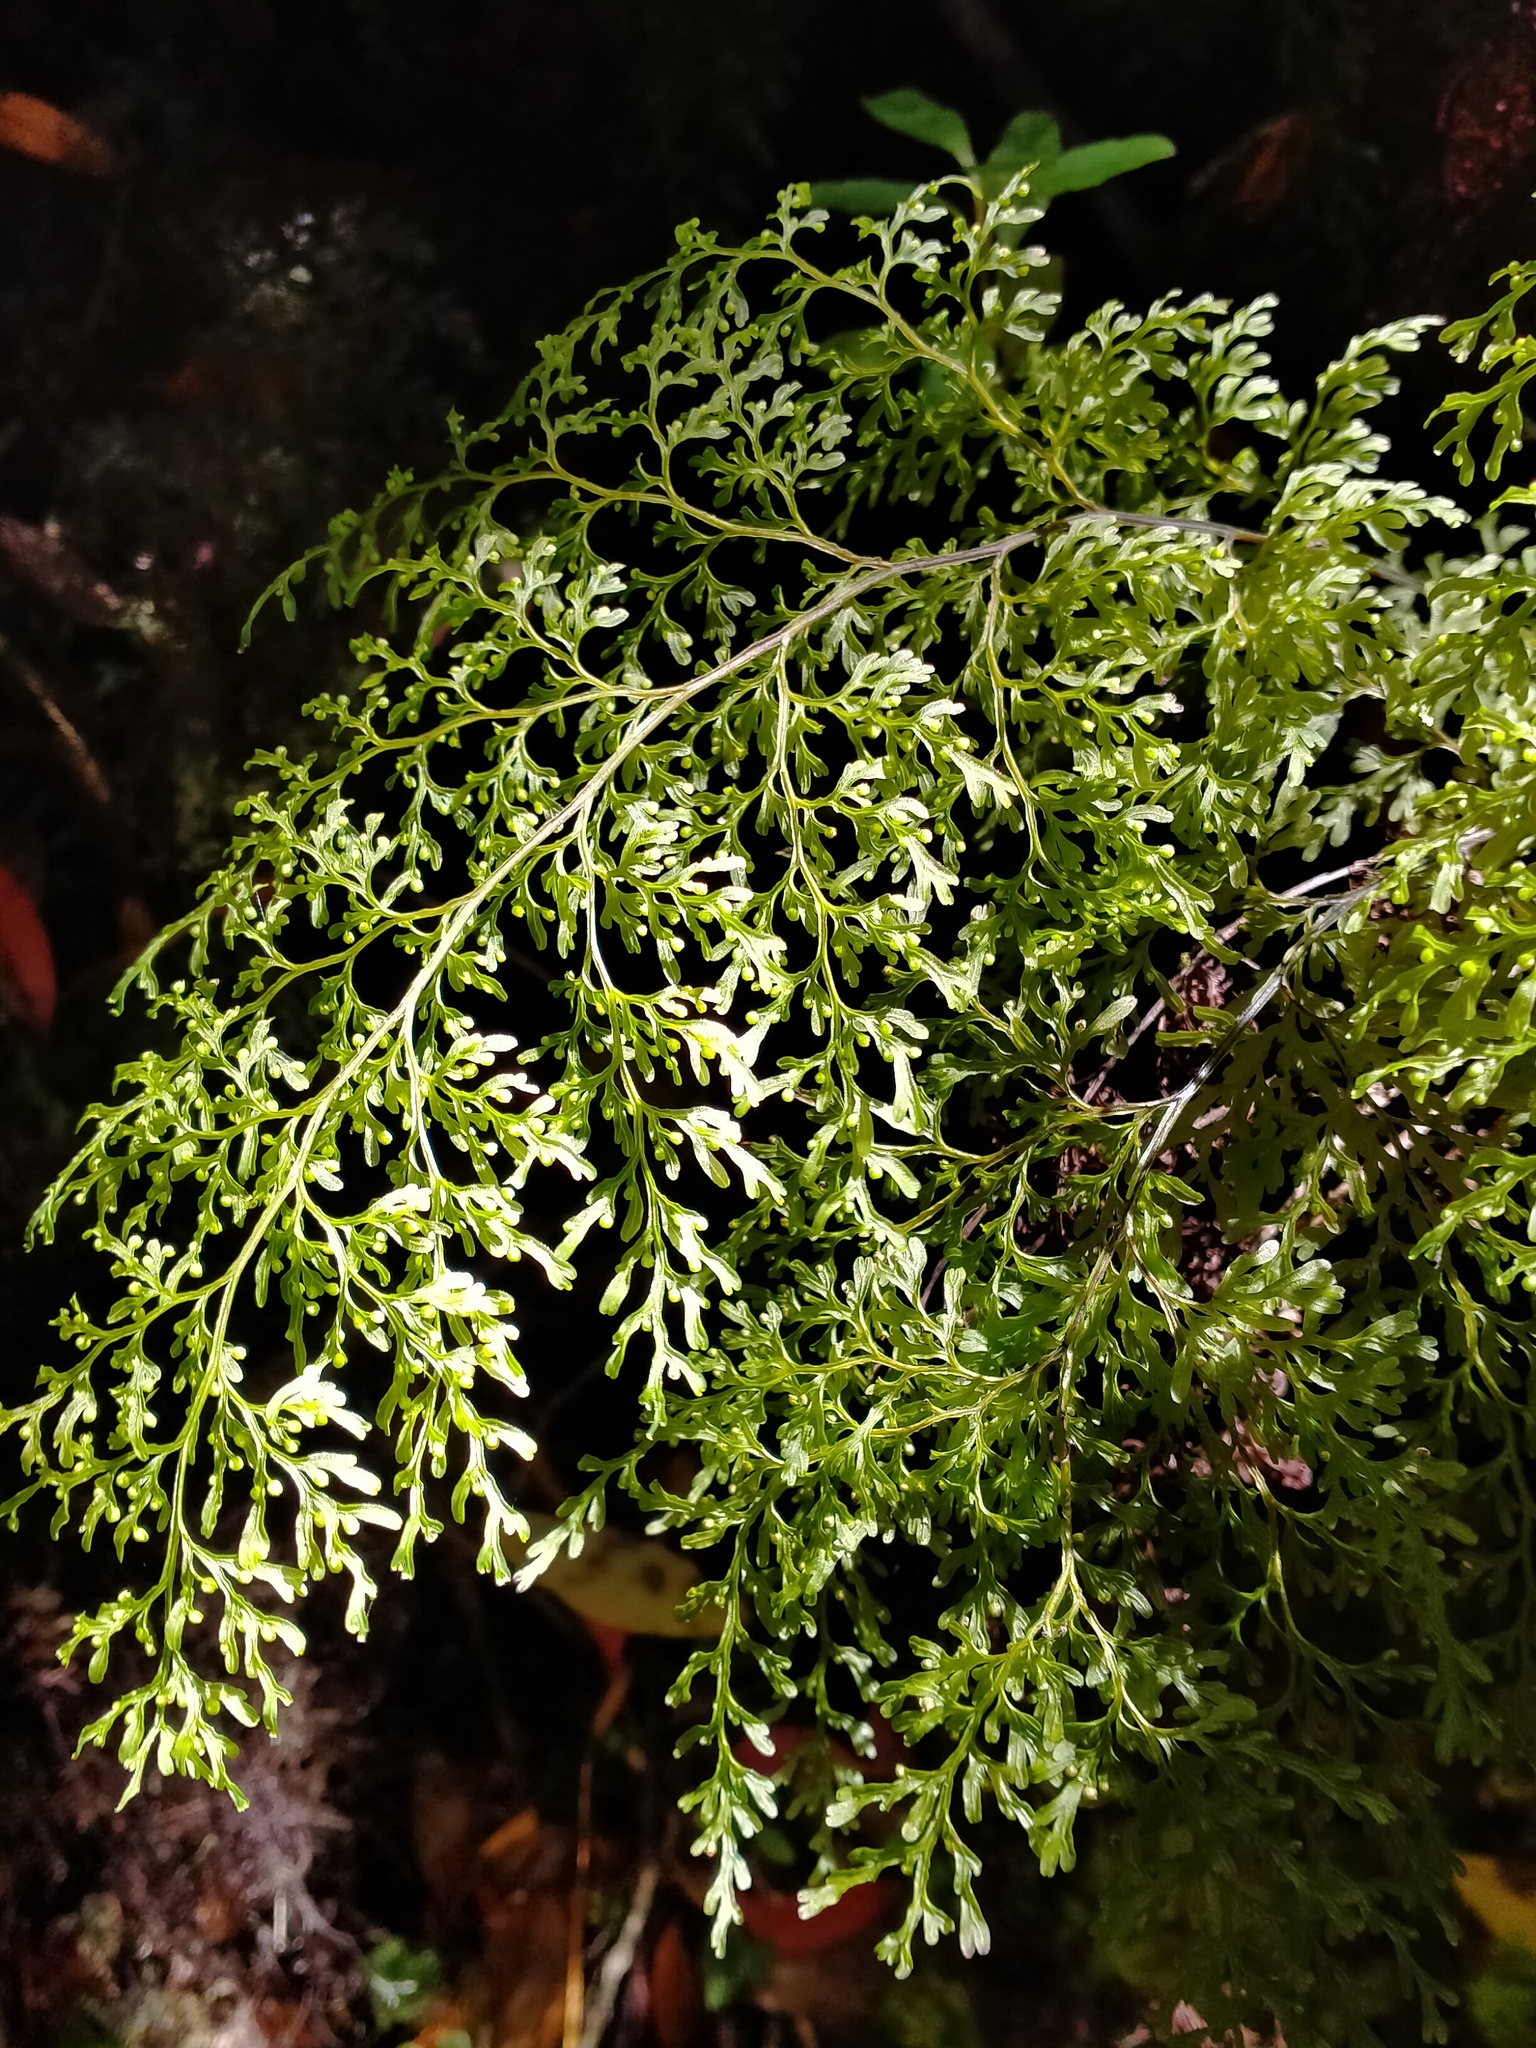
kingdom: Plantae
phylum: Tracheophyta
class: Polypodiopsida
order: Hymenophyllales
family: Hymenophyllaceae
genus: Hymenophyllum
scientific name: Hymenophyllum pulcherrimum
